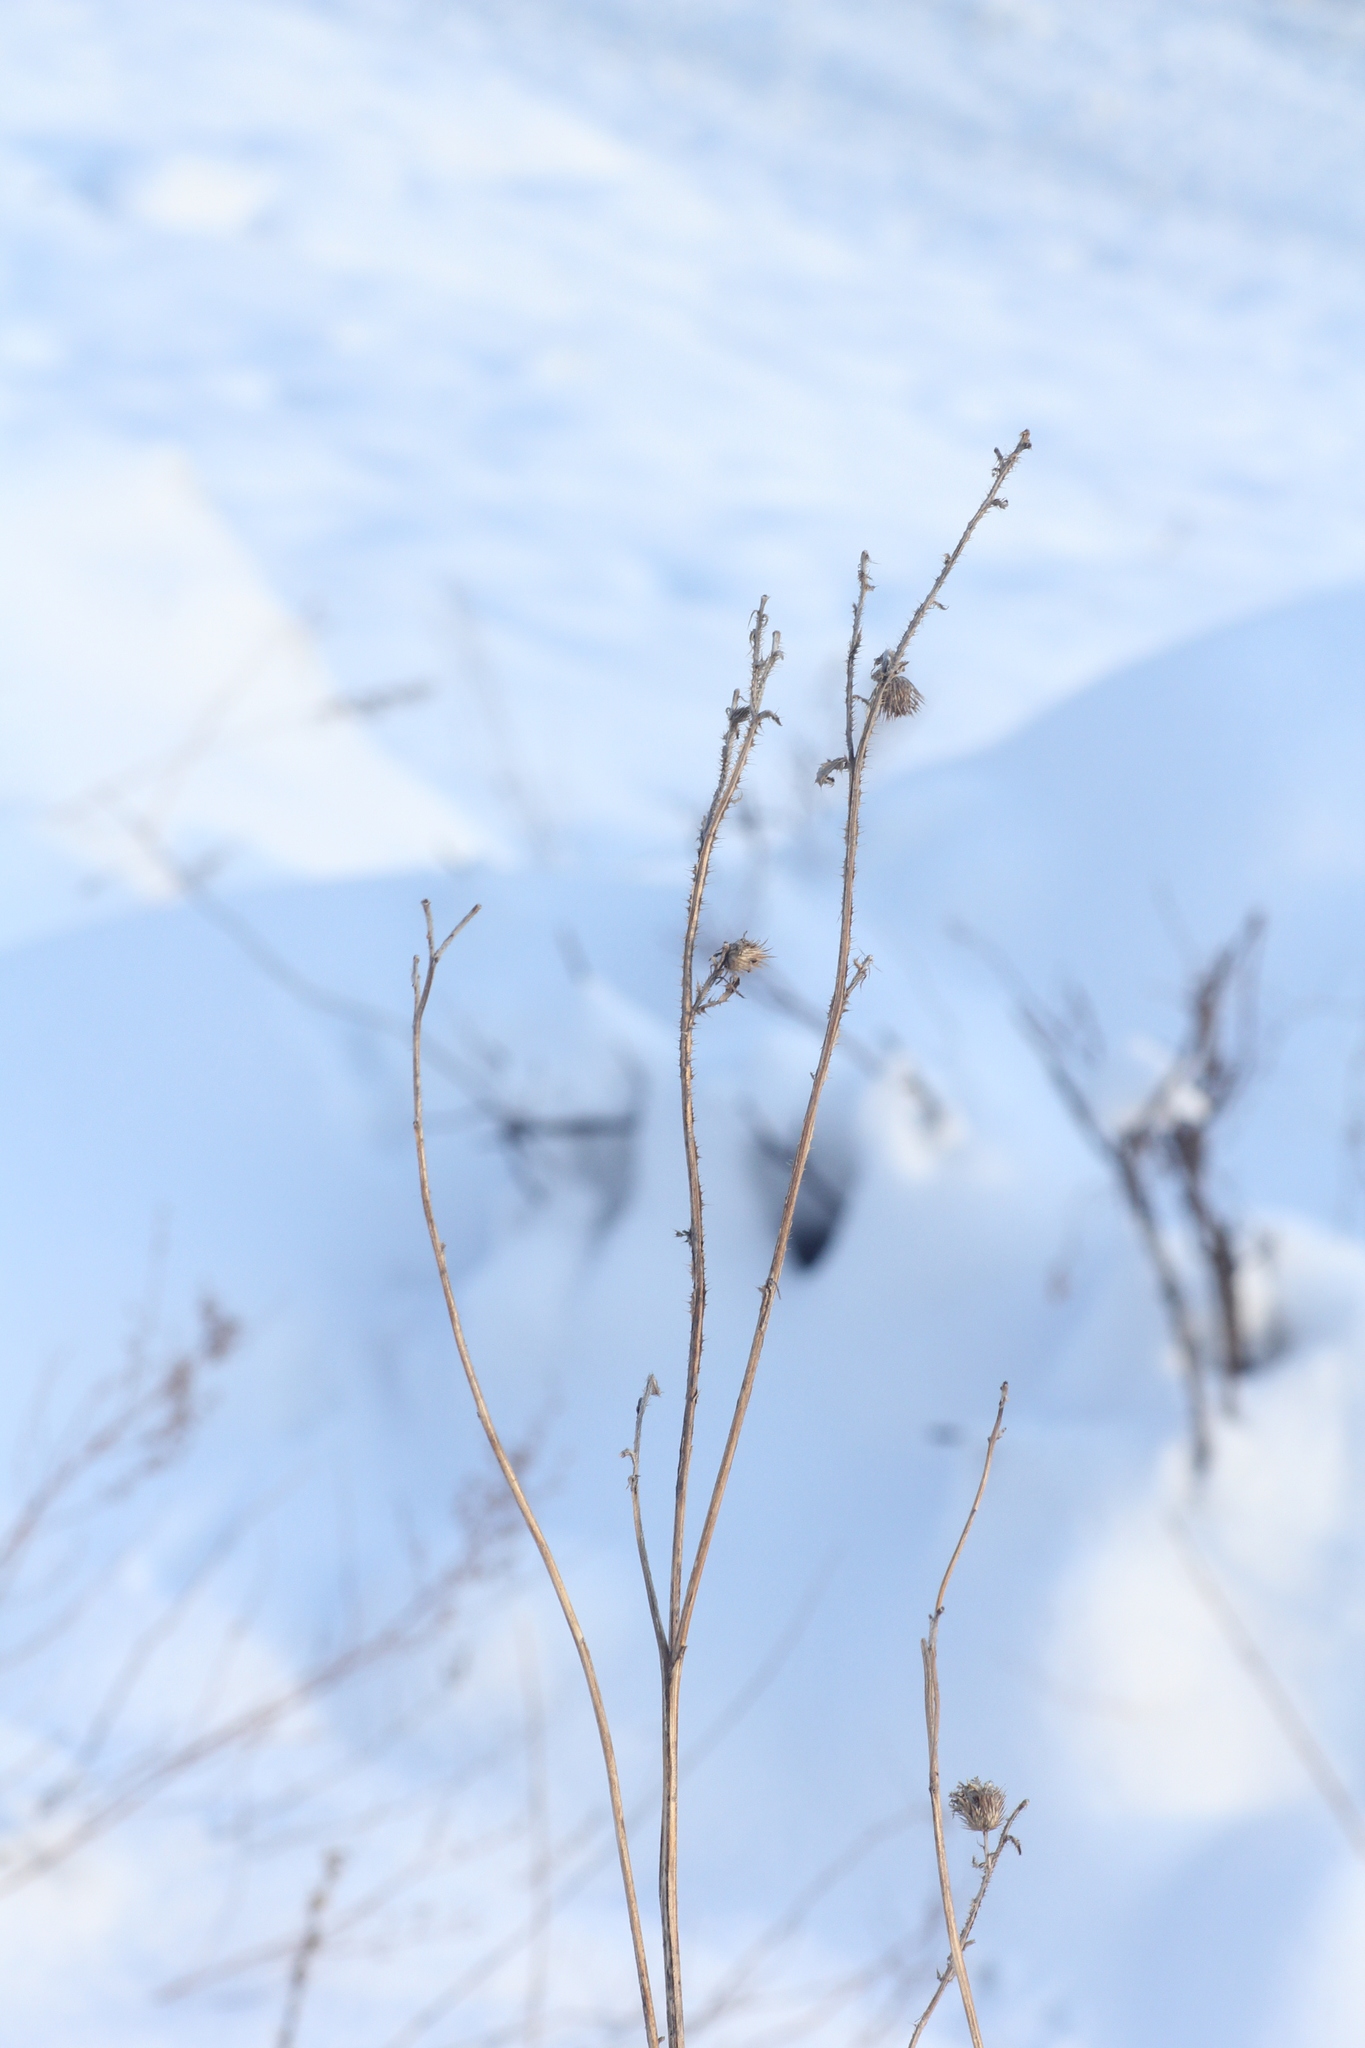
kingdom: Plantae
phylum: Tracheophyta
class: Magnoliopsida
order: Asterales
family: Asteraceae
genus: Carduus
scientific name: Carduus crispus
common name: Welted thistle
